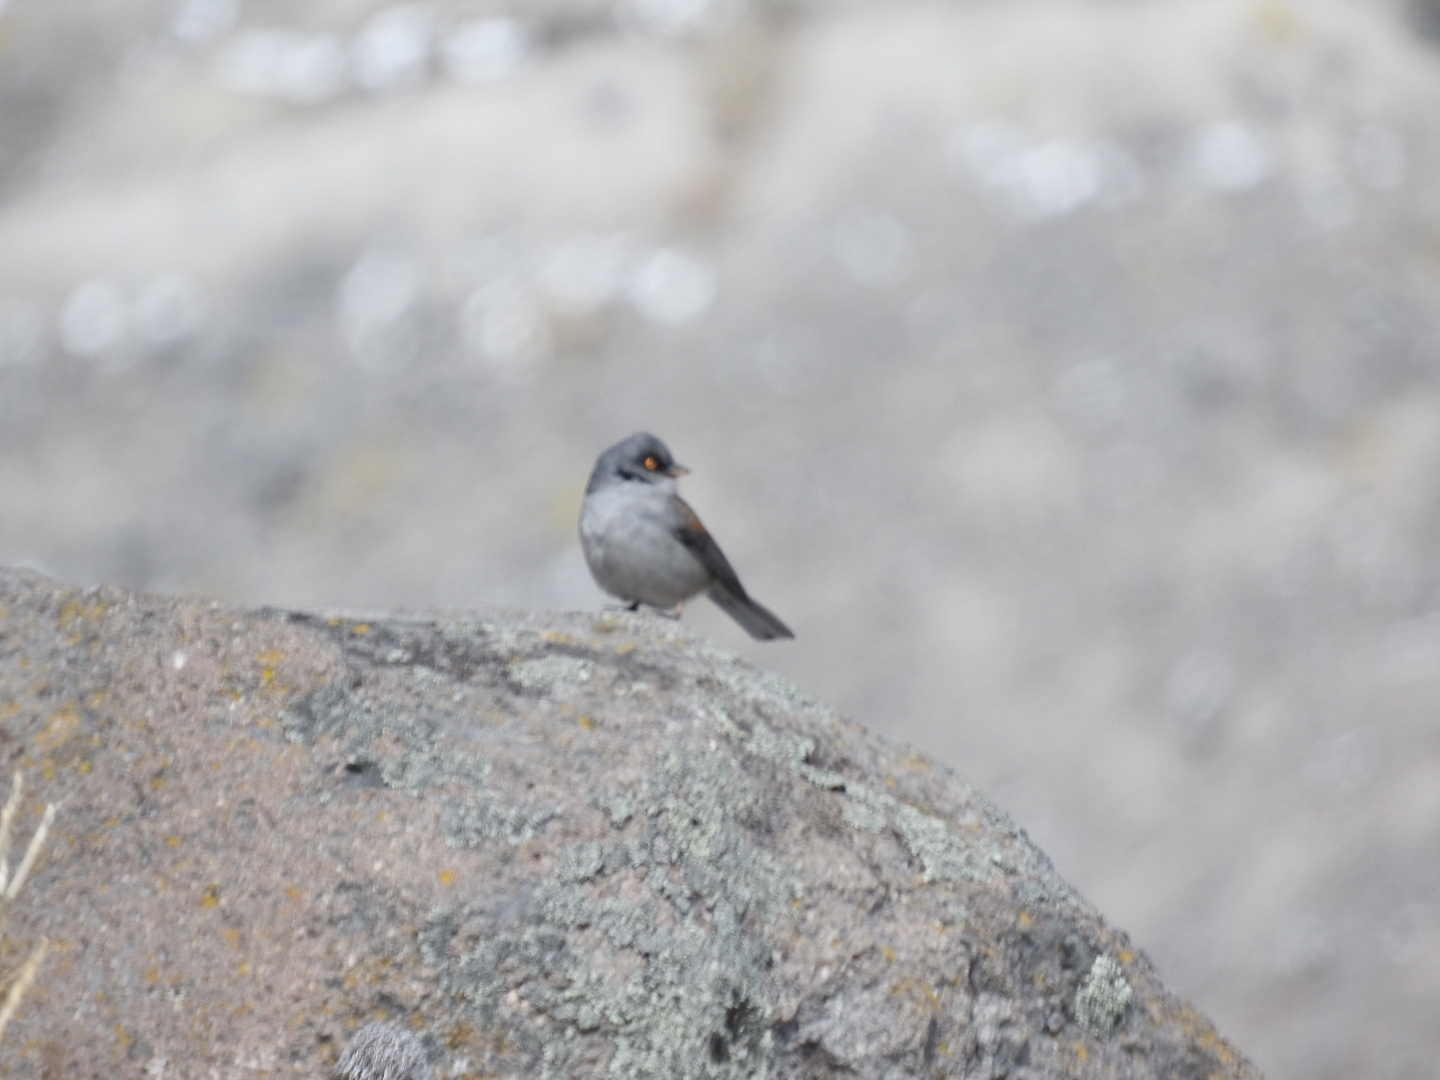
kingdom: Animalia
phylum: Chordata
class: Aves
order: Passeriformes
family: Passerellidae
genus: Junco
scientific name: Junco phaeonotus
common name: Yellow-eyed junco
